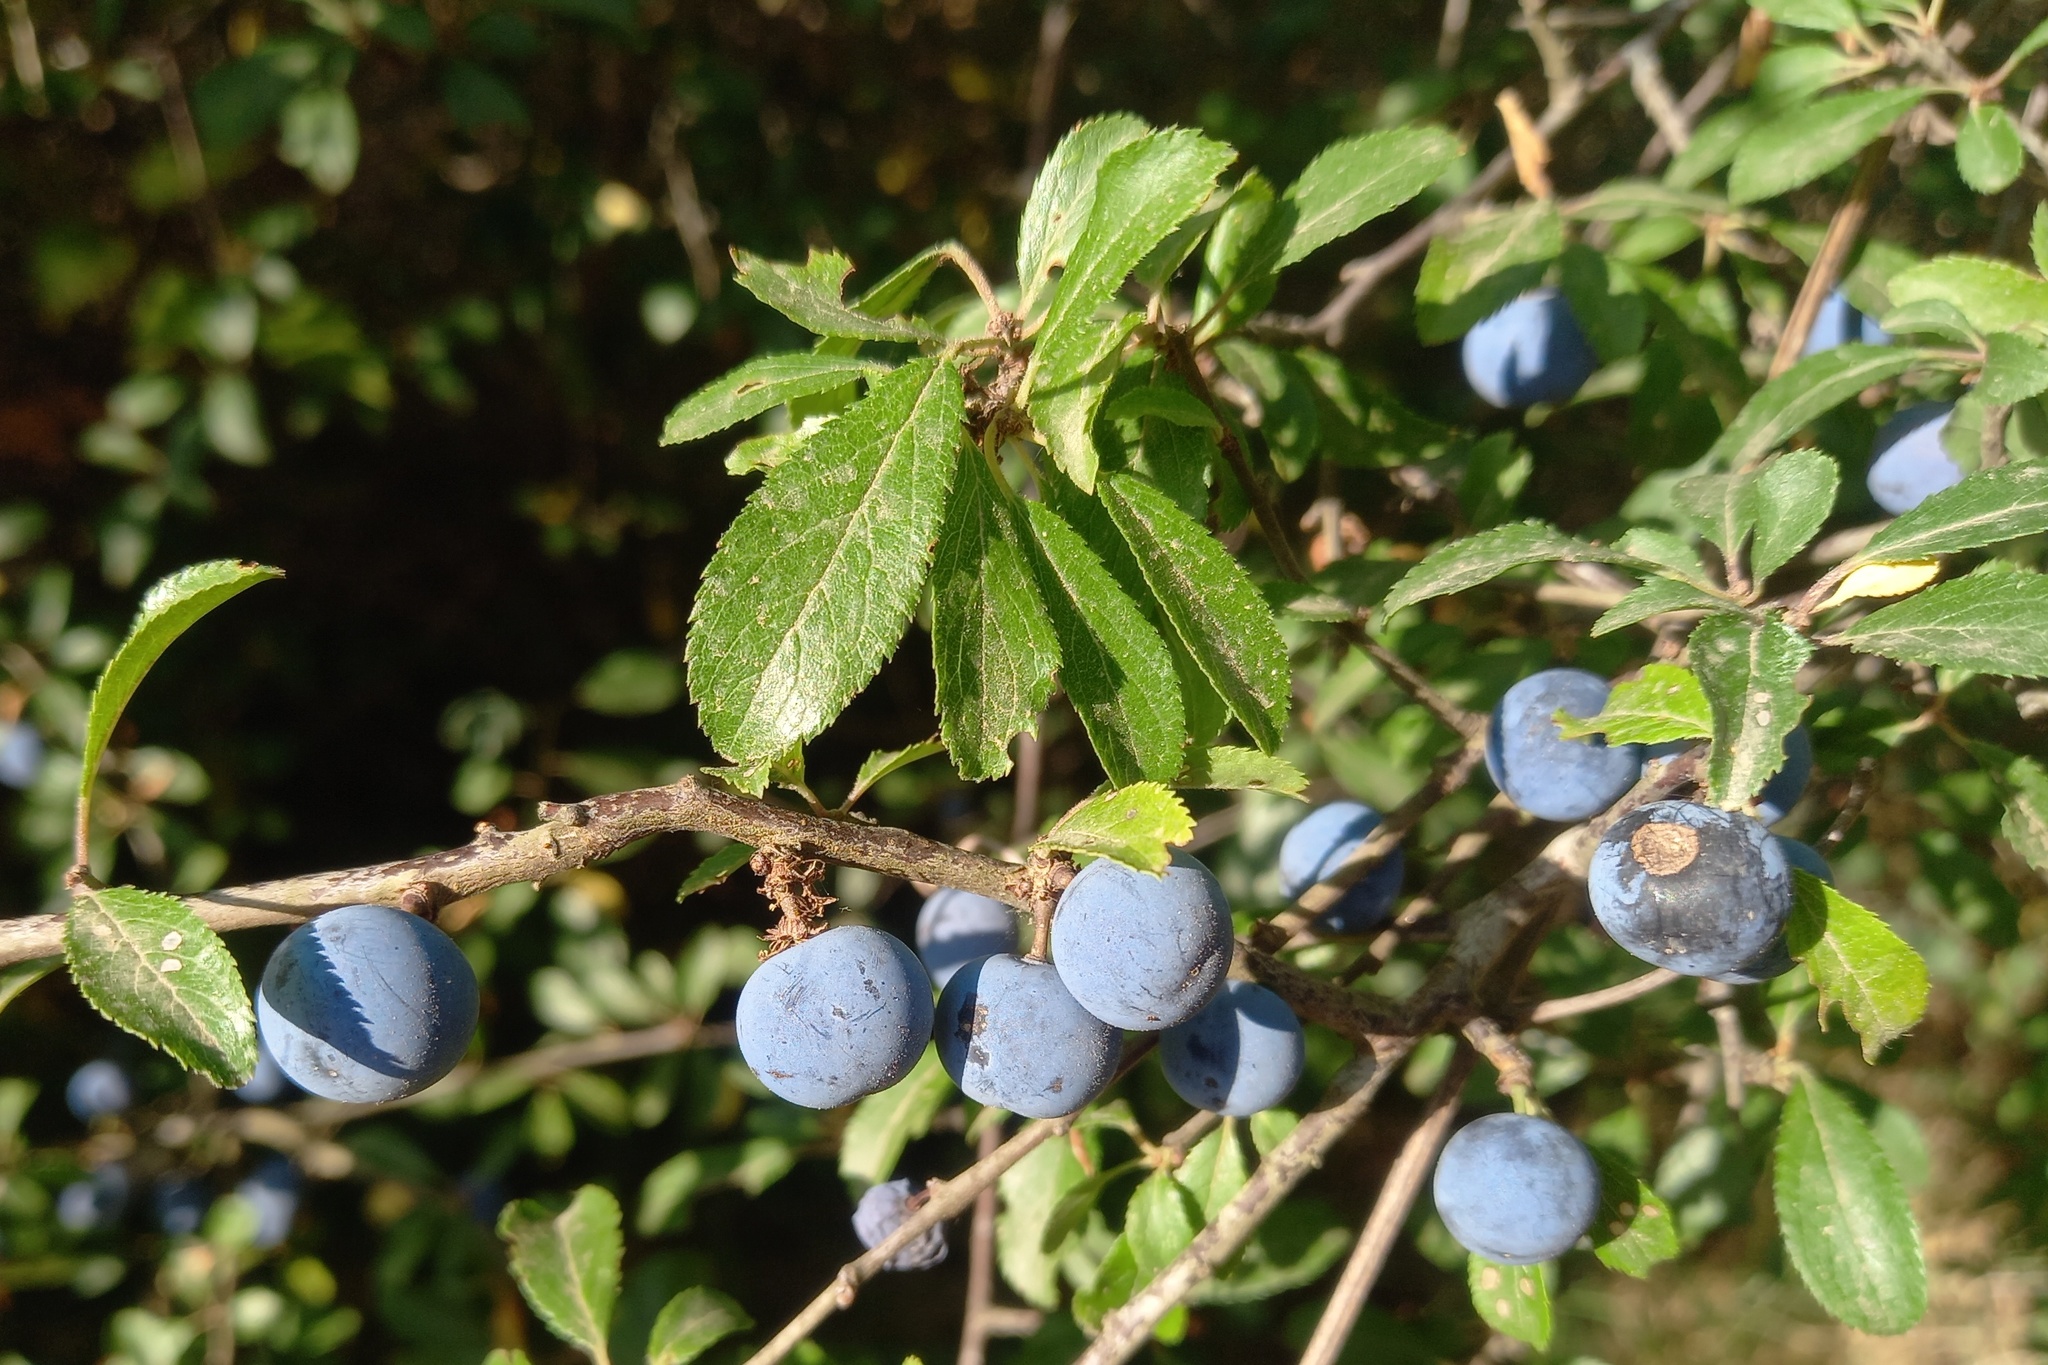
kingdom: Plantae
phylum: Tracheophyta
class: Magnoliopsida
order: Rosales
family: Rosaceae
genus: Prunus
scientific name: Prunus spinosa
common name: Blackthorn
